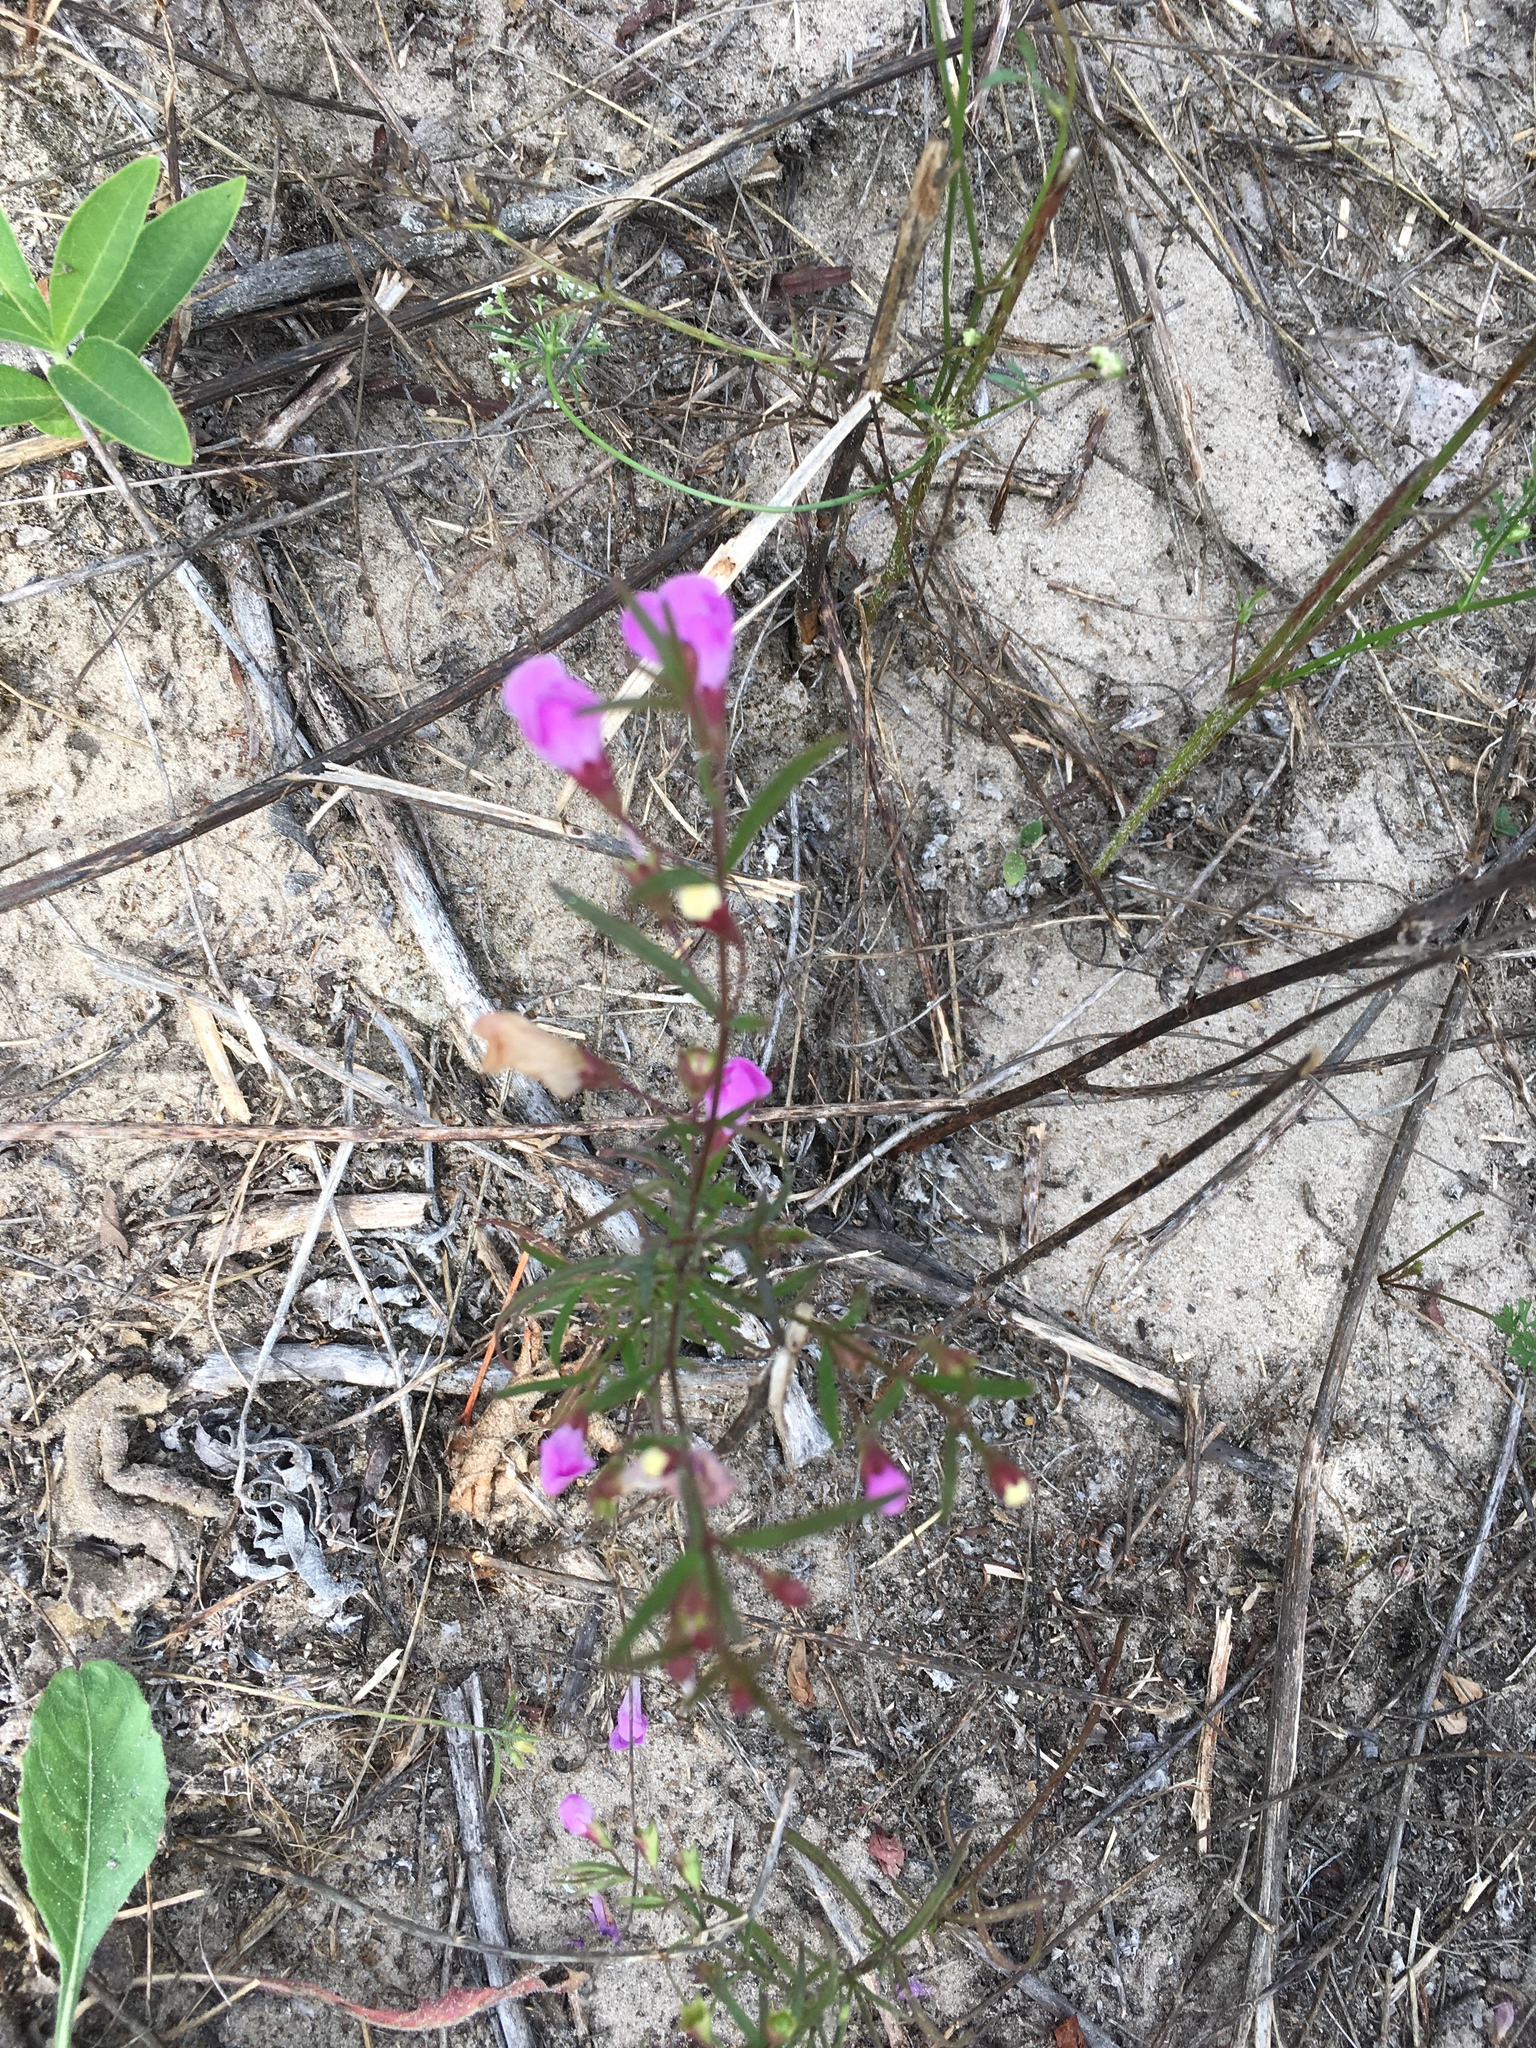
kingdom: Plantae
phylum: Tracheophyta
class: Magnoliopsida
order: Lamiales
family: Orobanchaceae
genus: Agalinis
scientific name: Agalinis tenuifolia
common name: Slender agalinis
